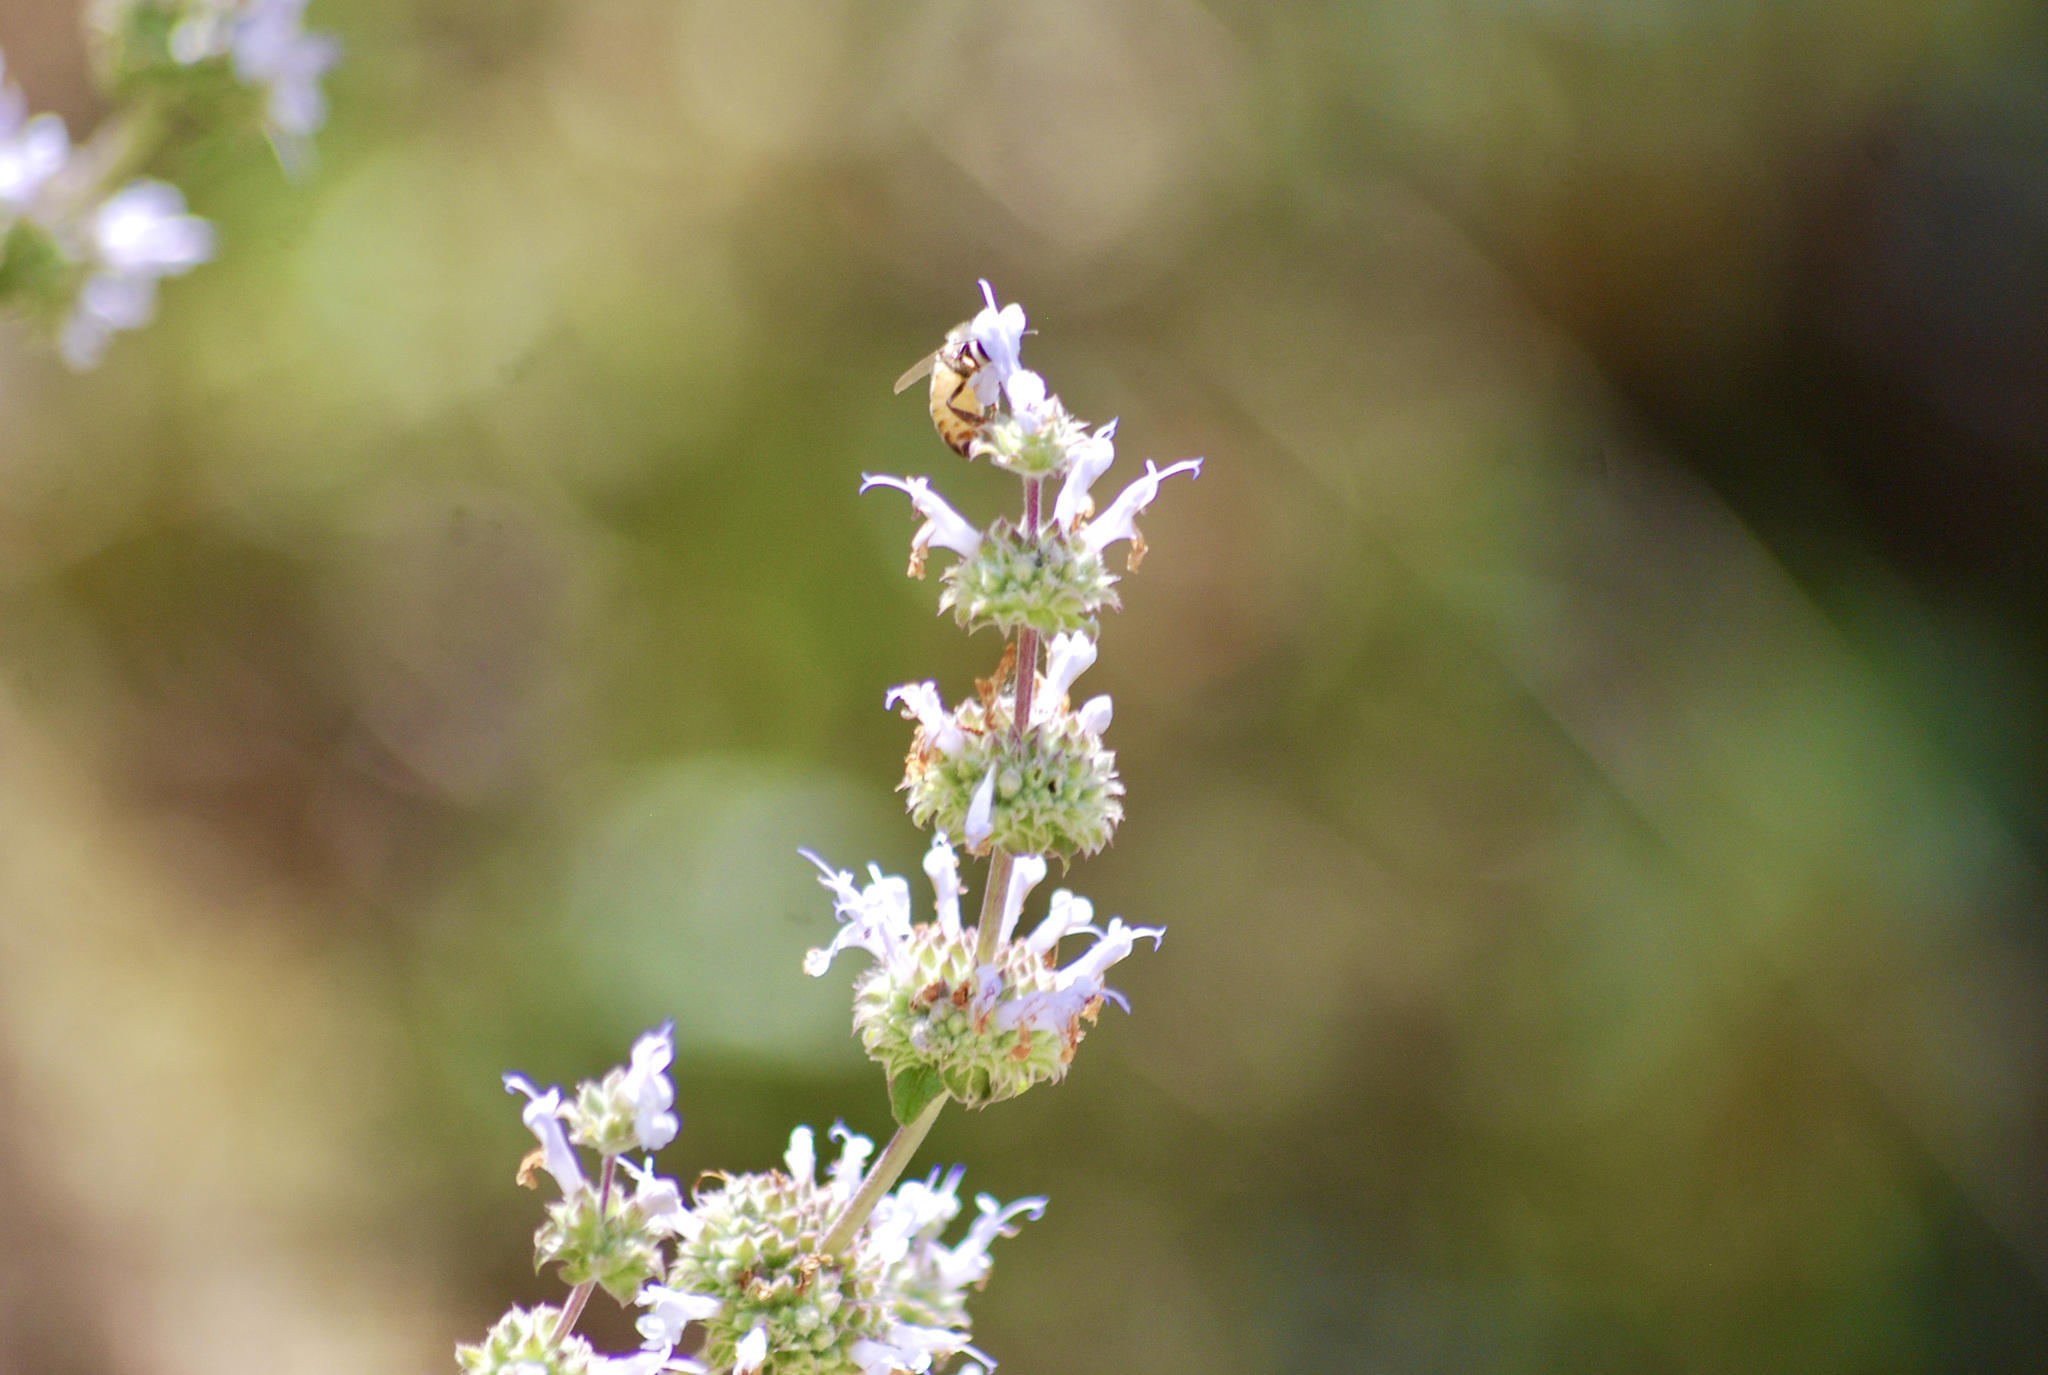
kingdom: Plantae
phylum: Tracheophyta
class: Magnoliopsida
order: Lamiales
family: Lamiaceae
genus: Salvia
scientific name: Salvia mellifera
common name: Black sage
